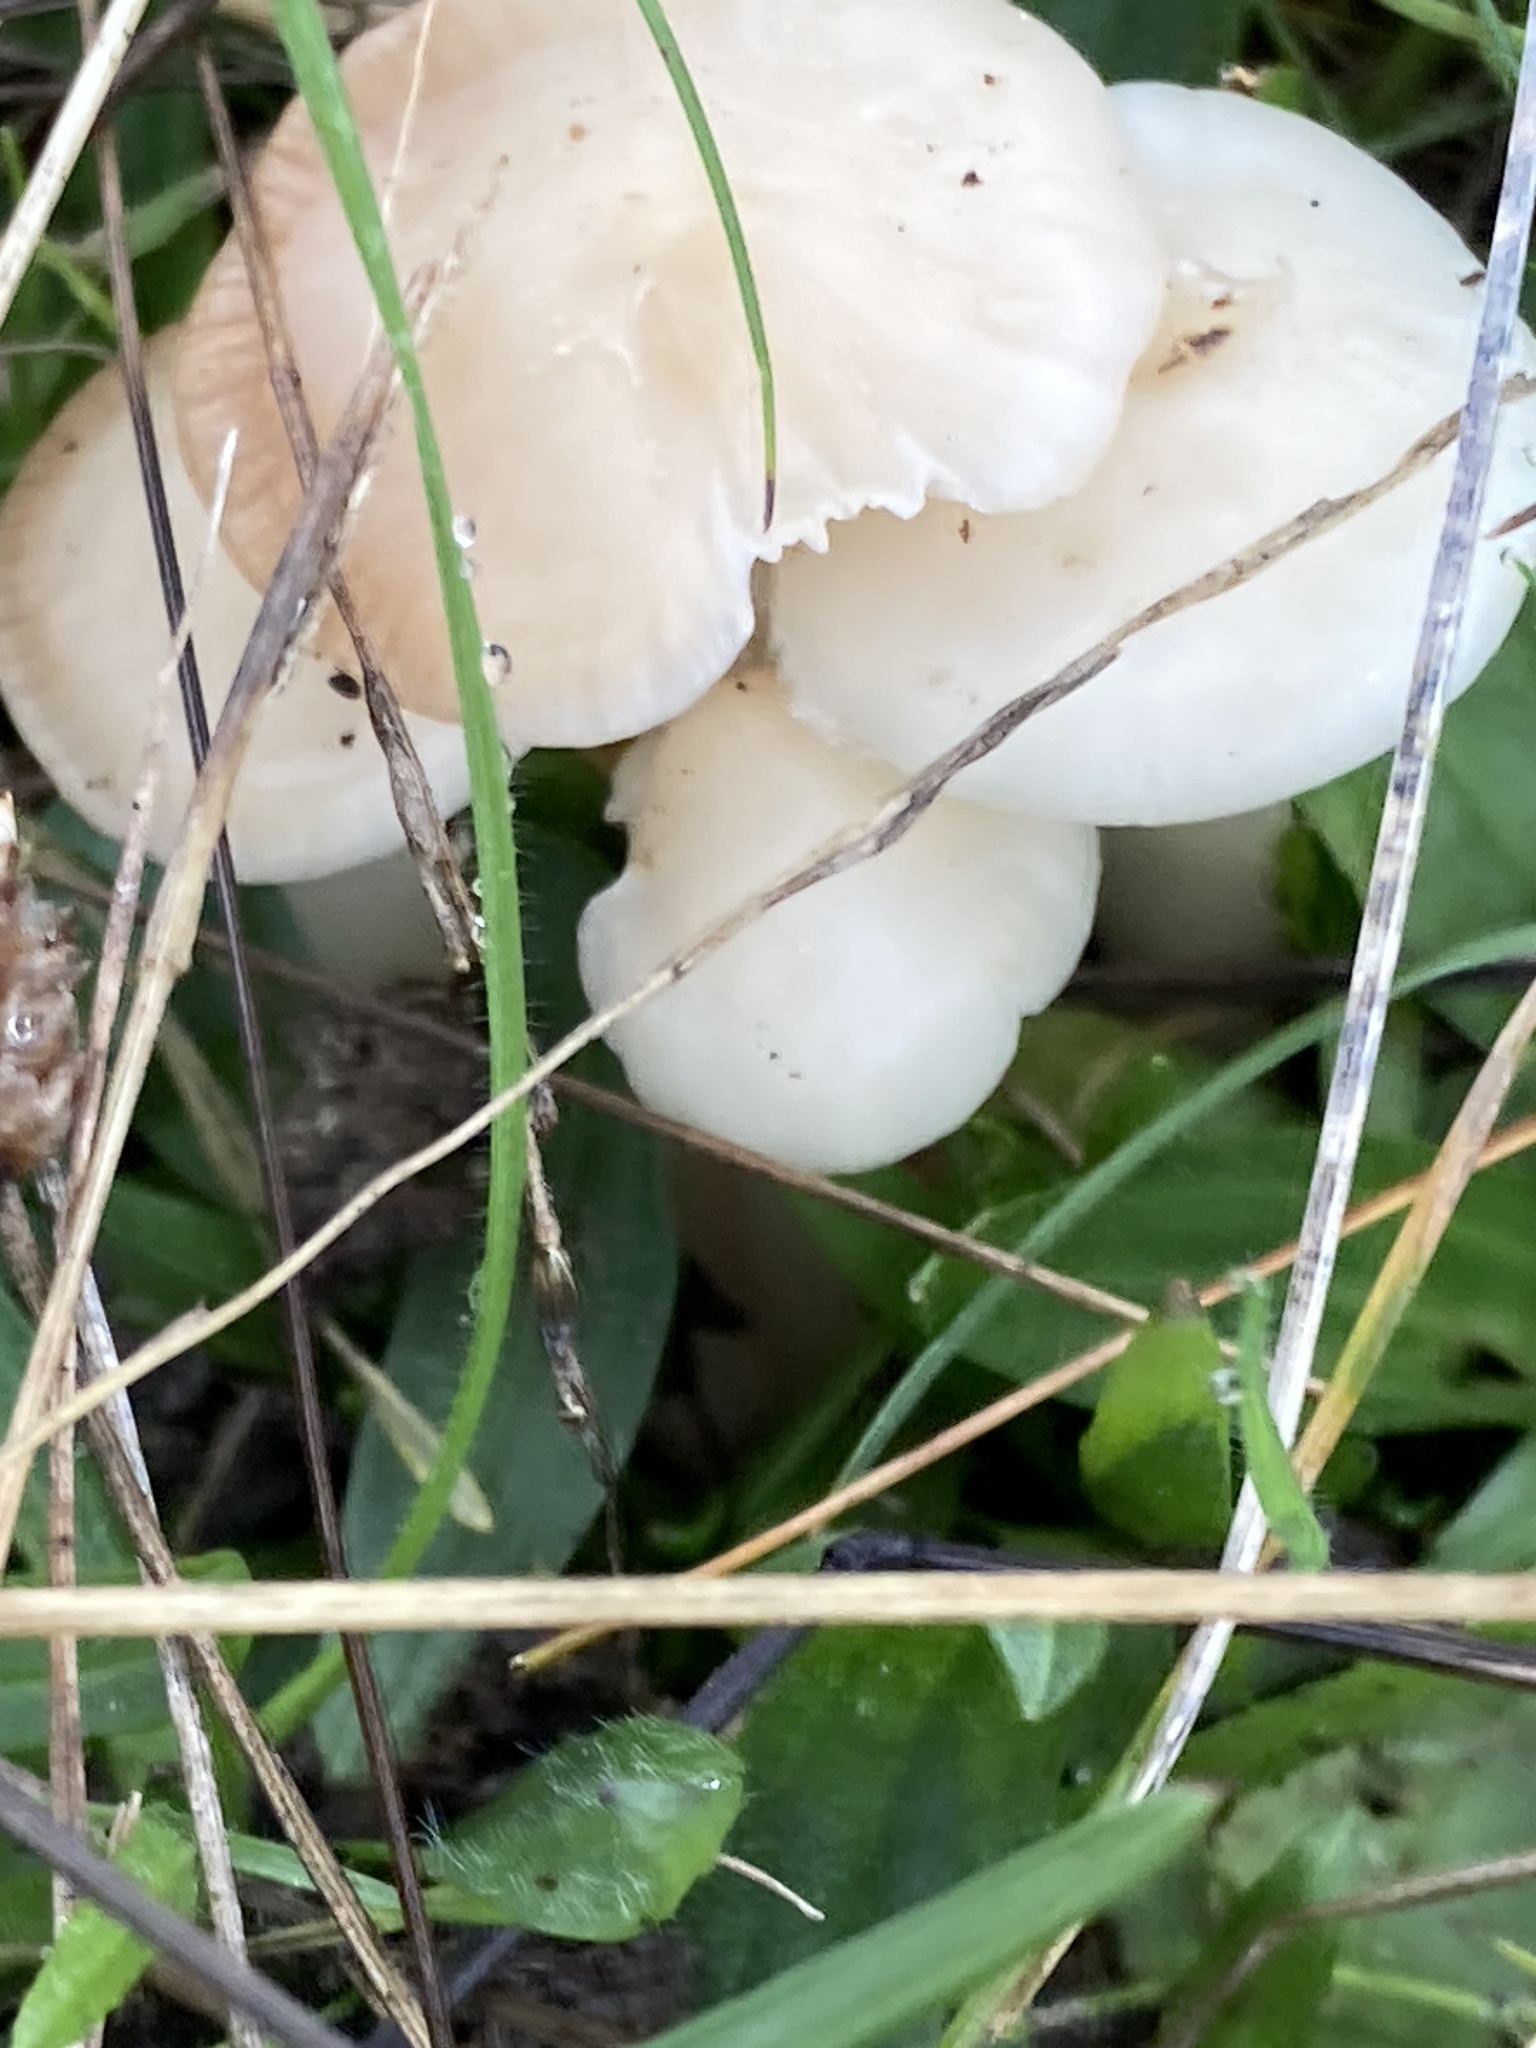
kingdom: Fungi
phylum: Basidiomycota
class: Agaricomycetes
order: Agaricales
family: Hygrophoraceae
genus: Cuphophyllus
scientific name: Cuphophyllus virgineus
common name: Snowy waxcap
